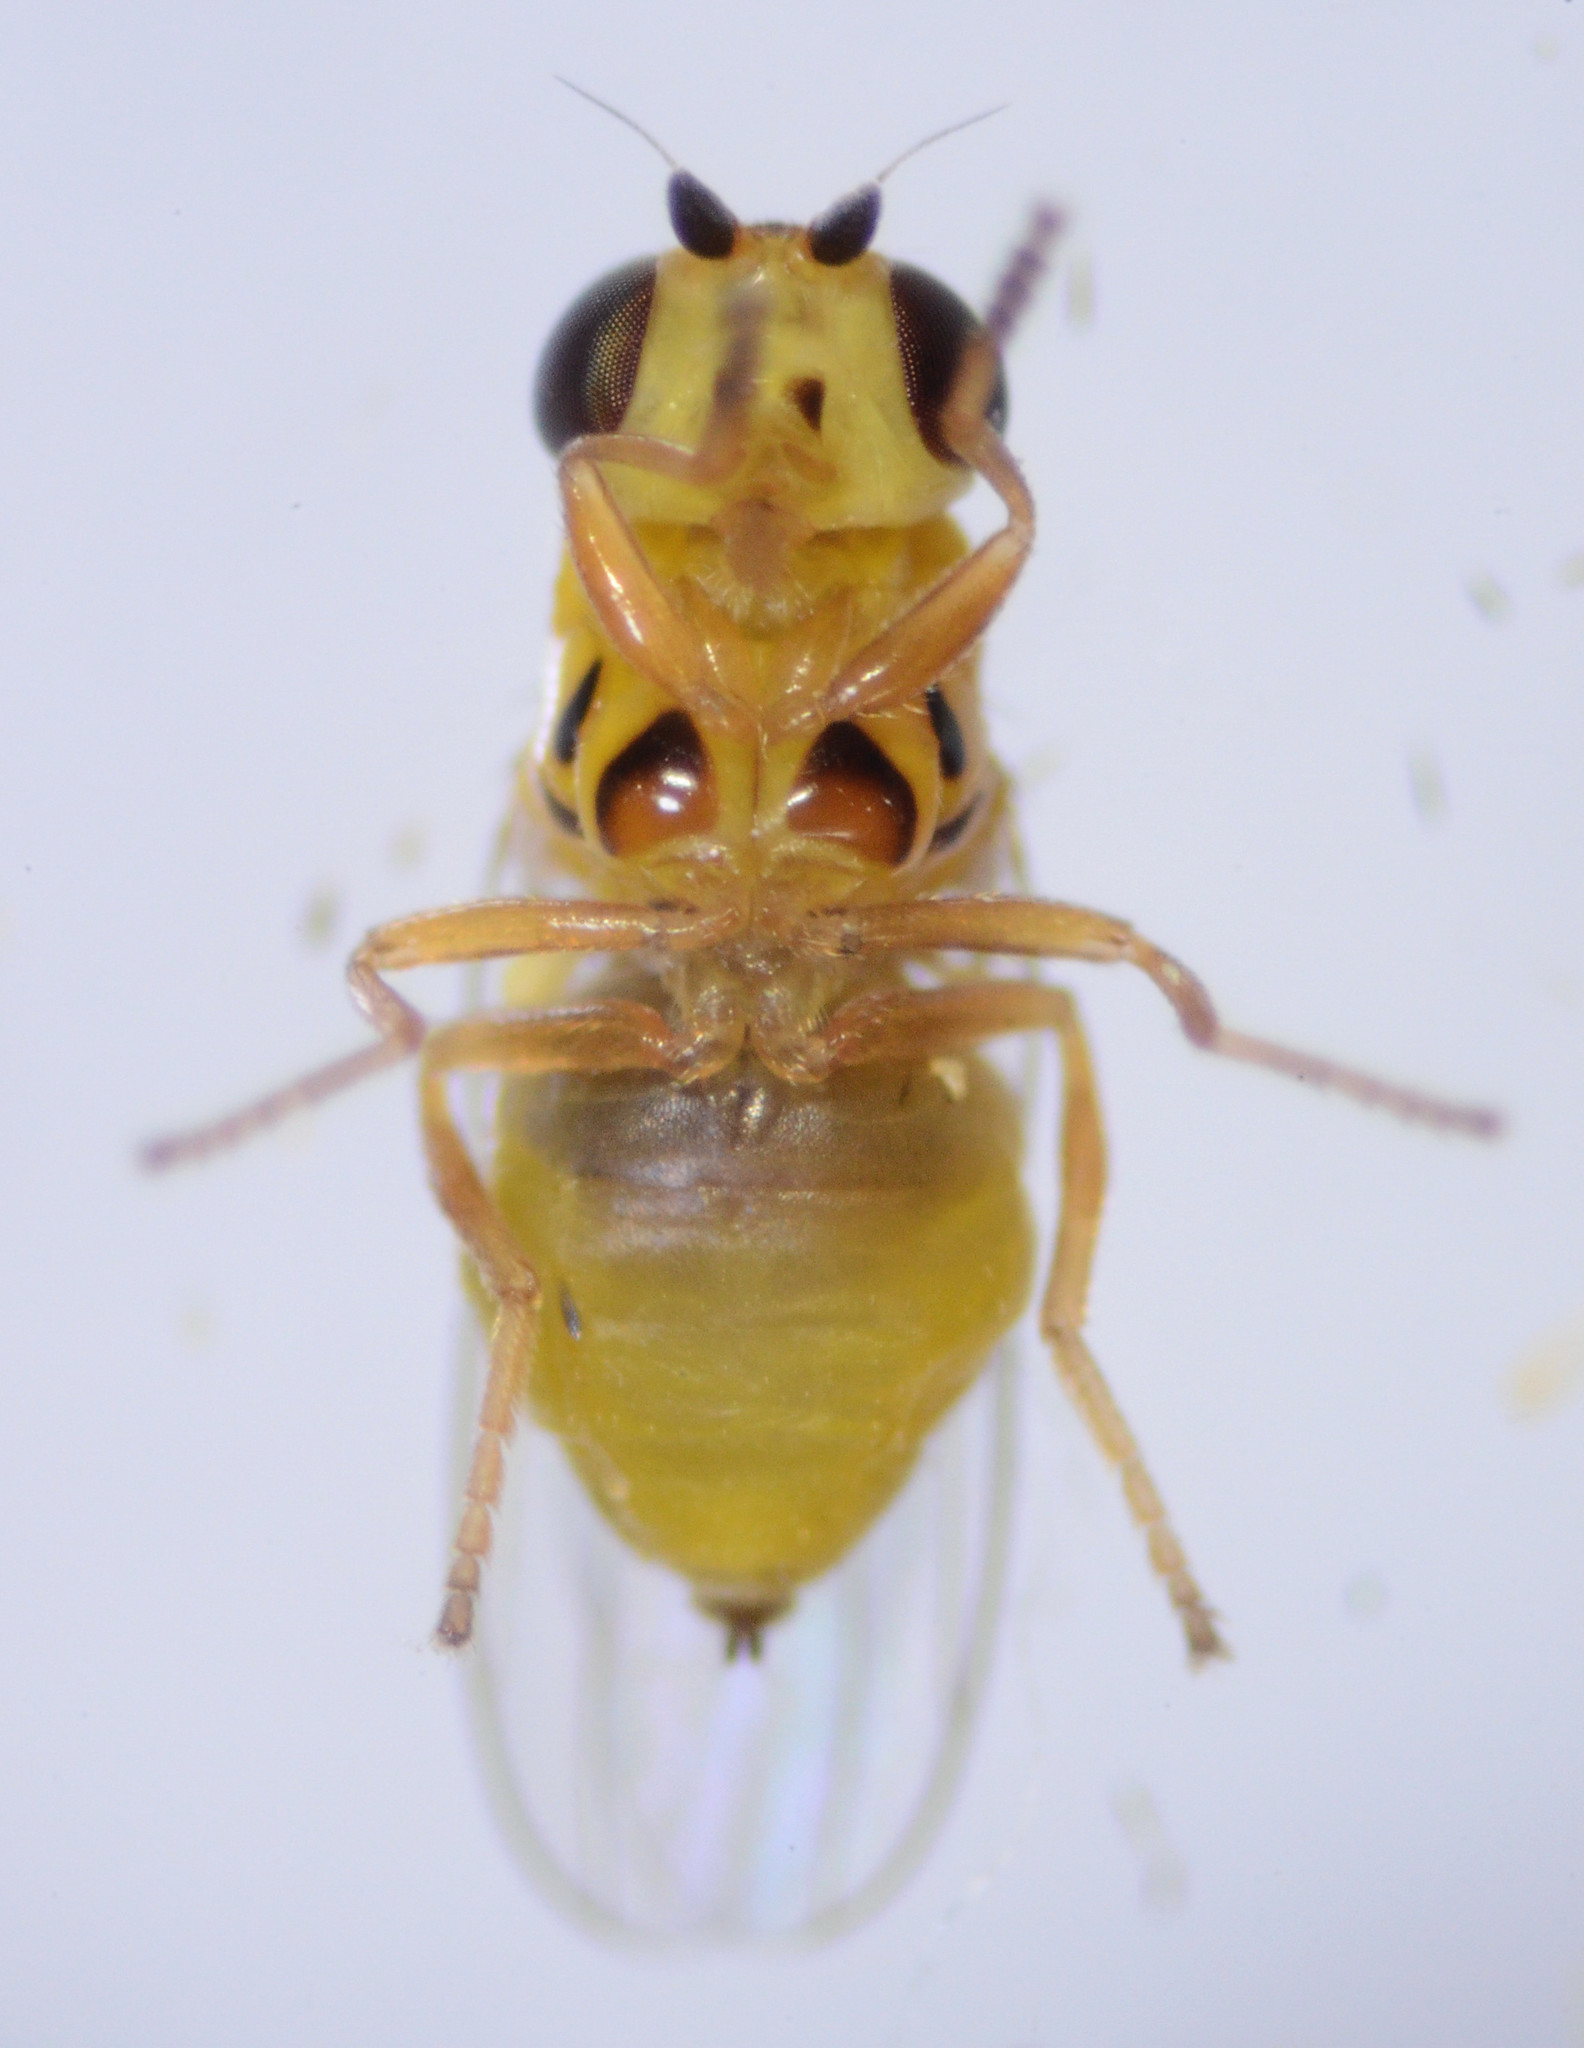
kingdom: Animalia
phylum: Arthropoda
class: Insecta
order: Diptera
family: Chloropidae
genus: Thaumatomyia
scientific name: Thaumatomyia glabra
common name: Chloropid fly
